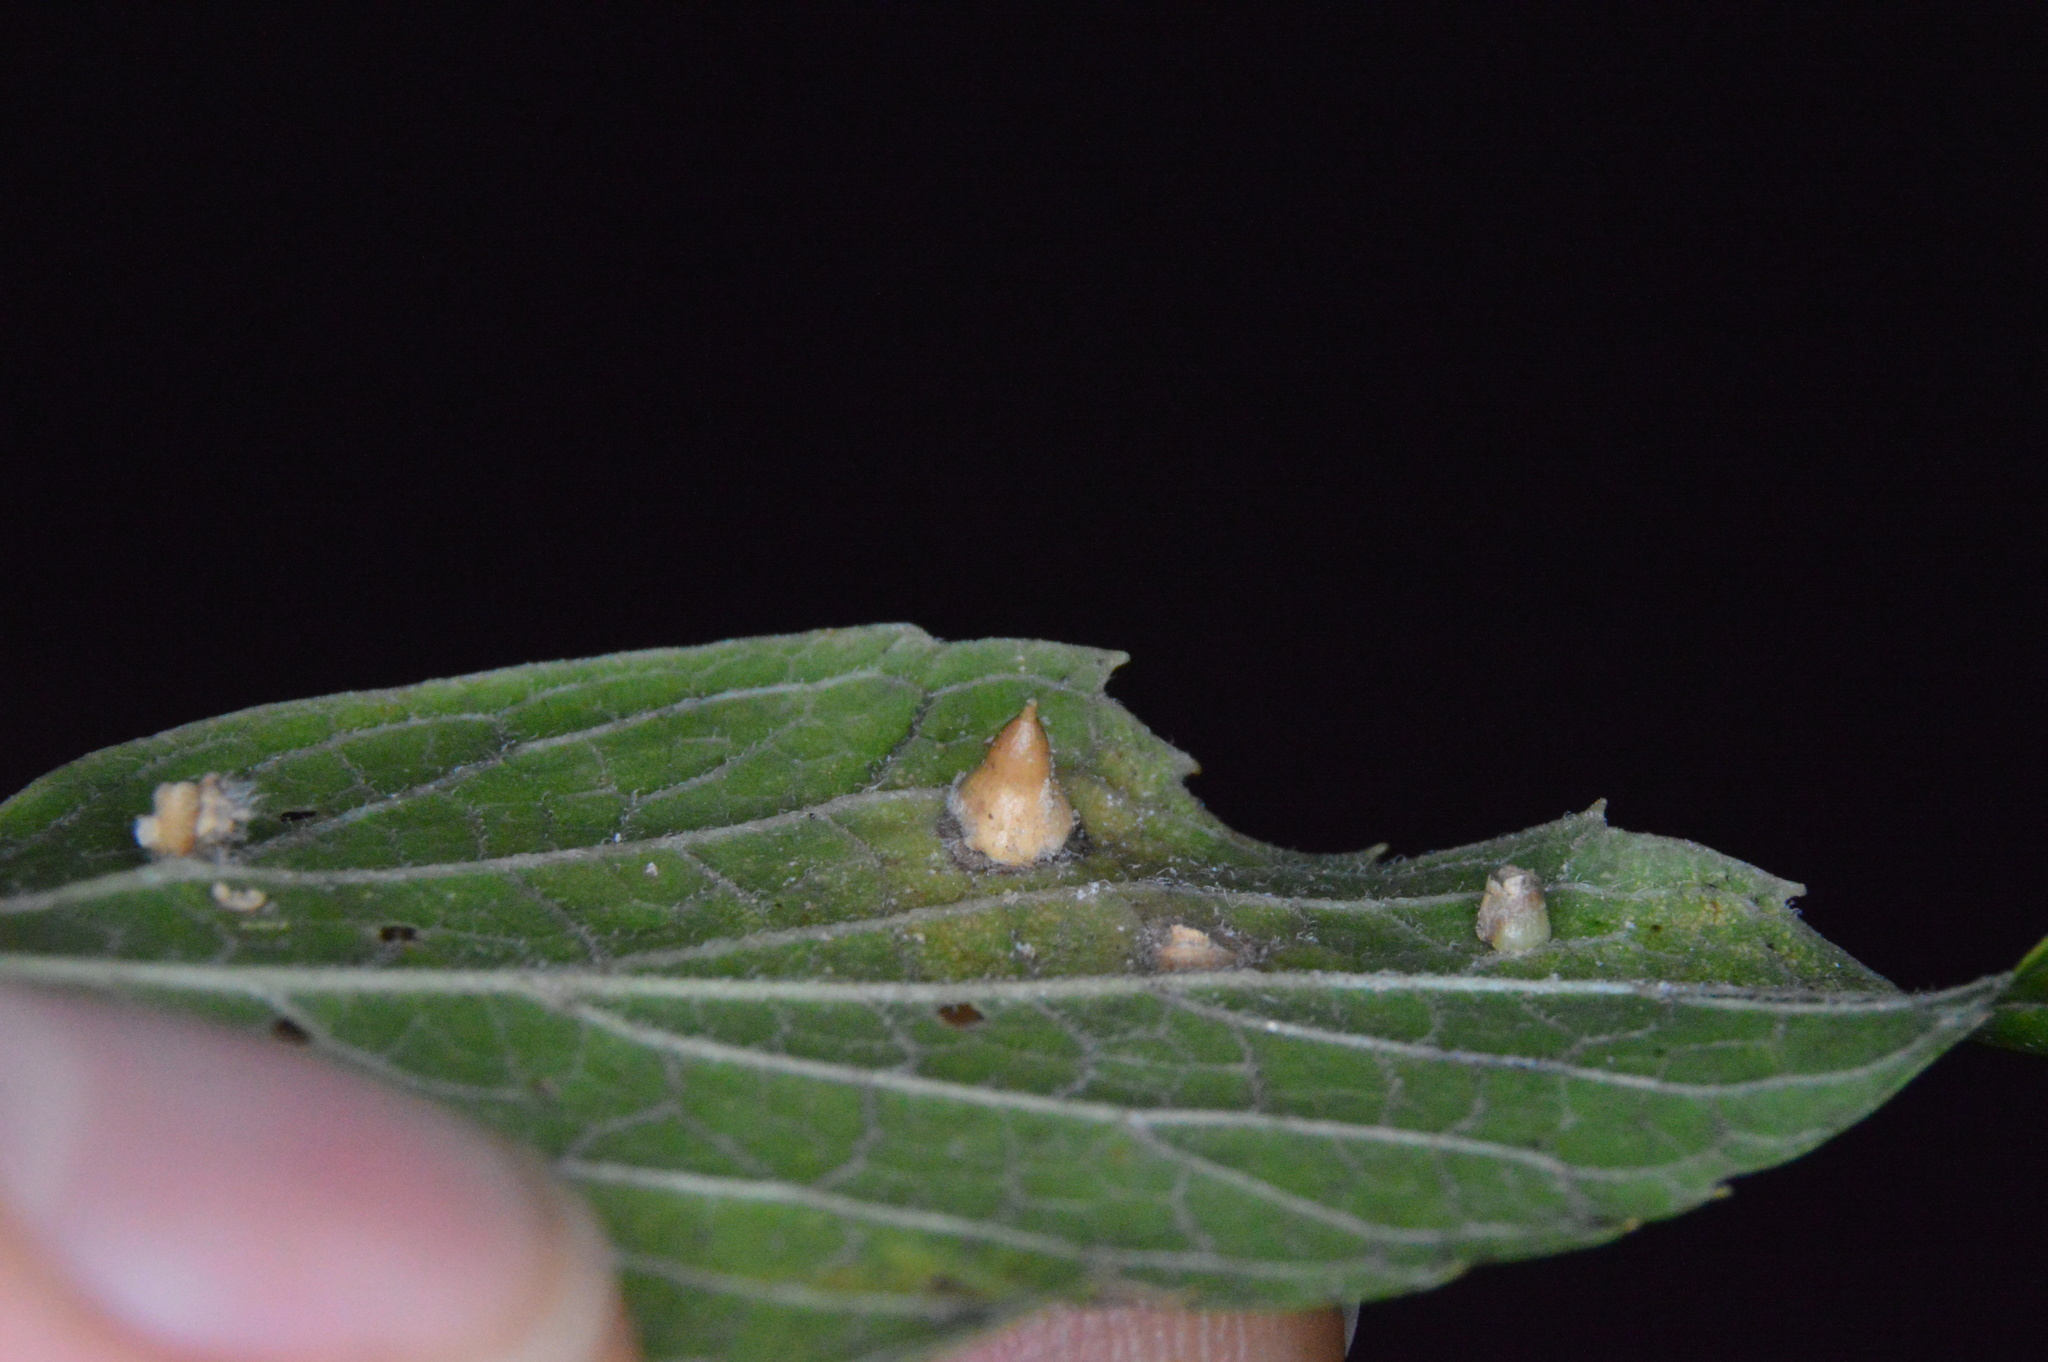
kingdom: Animalia
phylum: Arthropoda
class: Insecta
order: Diptera
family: Cecidomyiidae
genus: Celticecis
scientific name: Celticecis spiniformis
